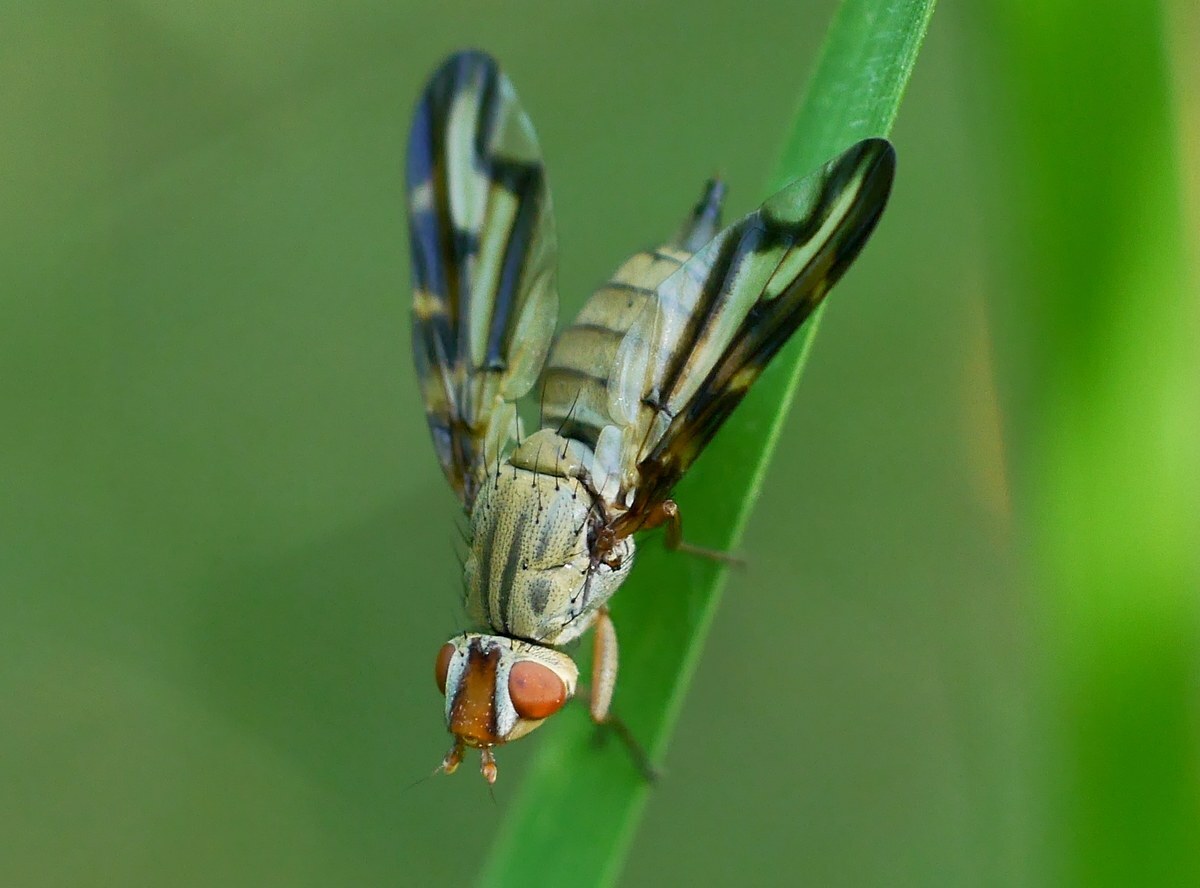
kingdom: Animalia
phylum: Arthropoda
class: Insecta
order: Diptera
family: Ulidiidae
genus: Otites
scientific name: Otites lamed
